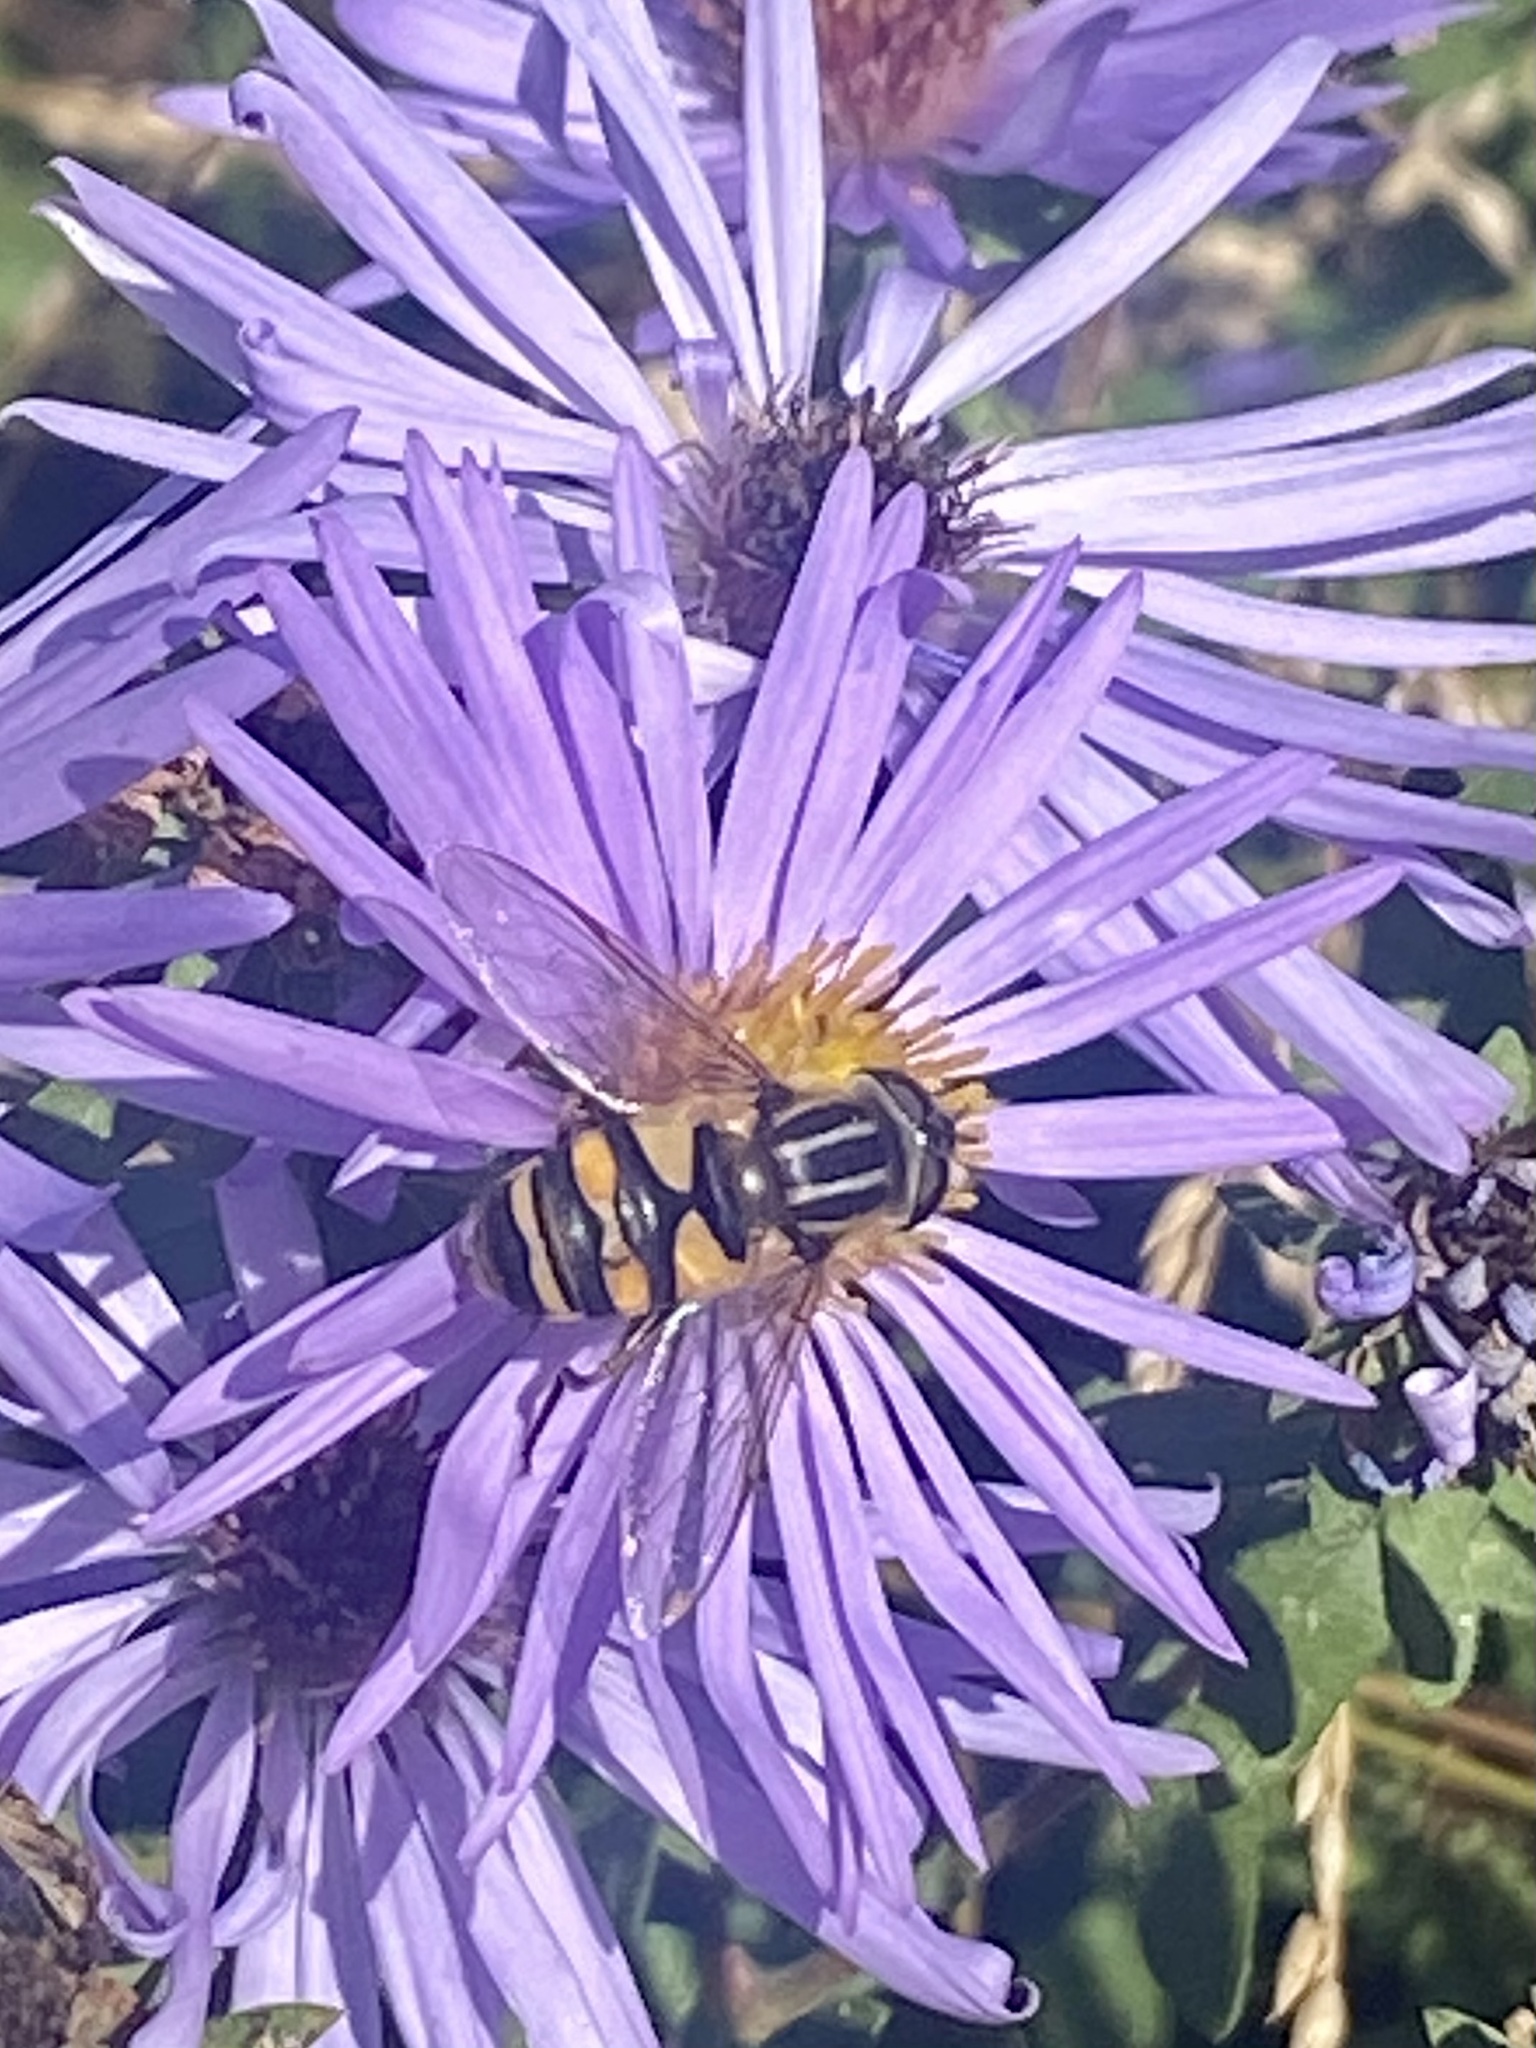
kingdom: Animalia
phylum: Arthropoda
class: Insecta
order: Diptera
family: Syrphidae
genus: Helophilus
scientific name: Helophilus fasciatus
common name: Narrow-headed marsh fly
